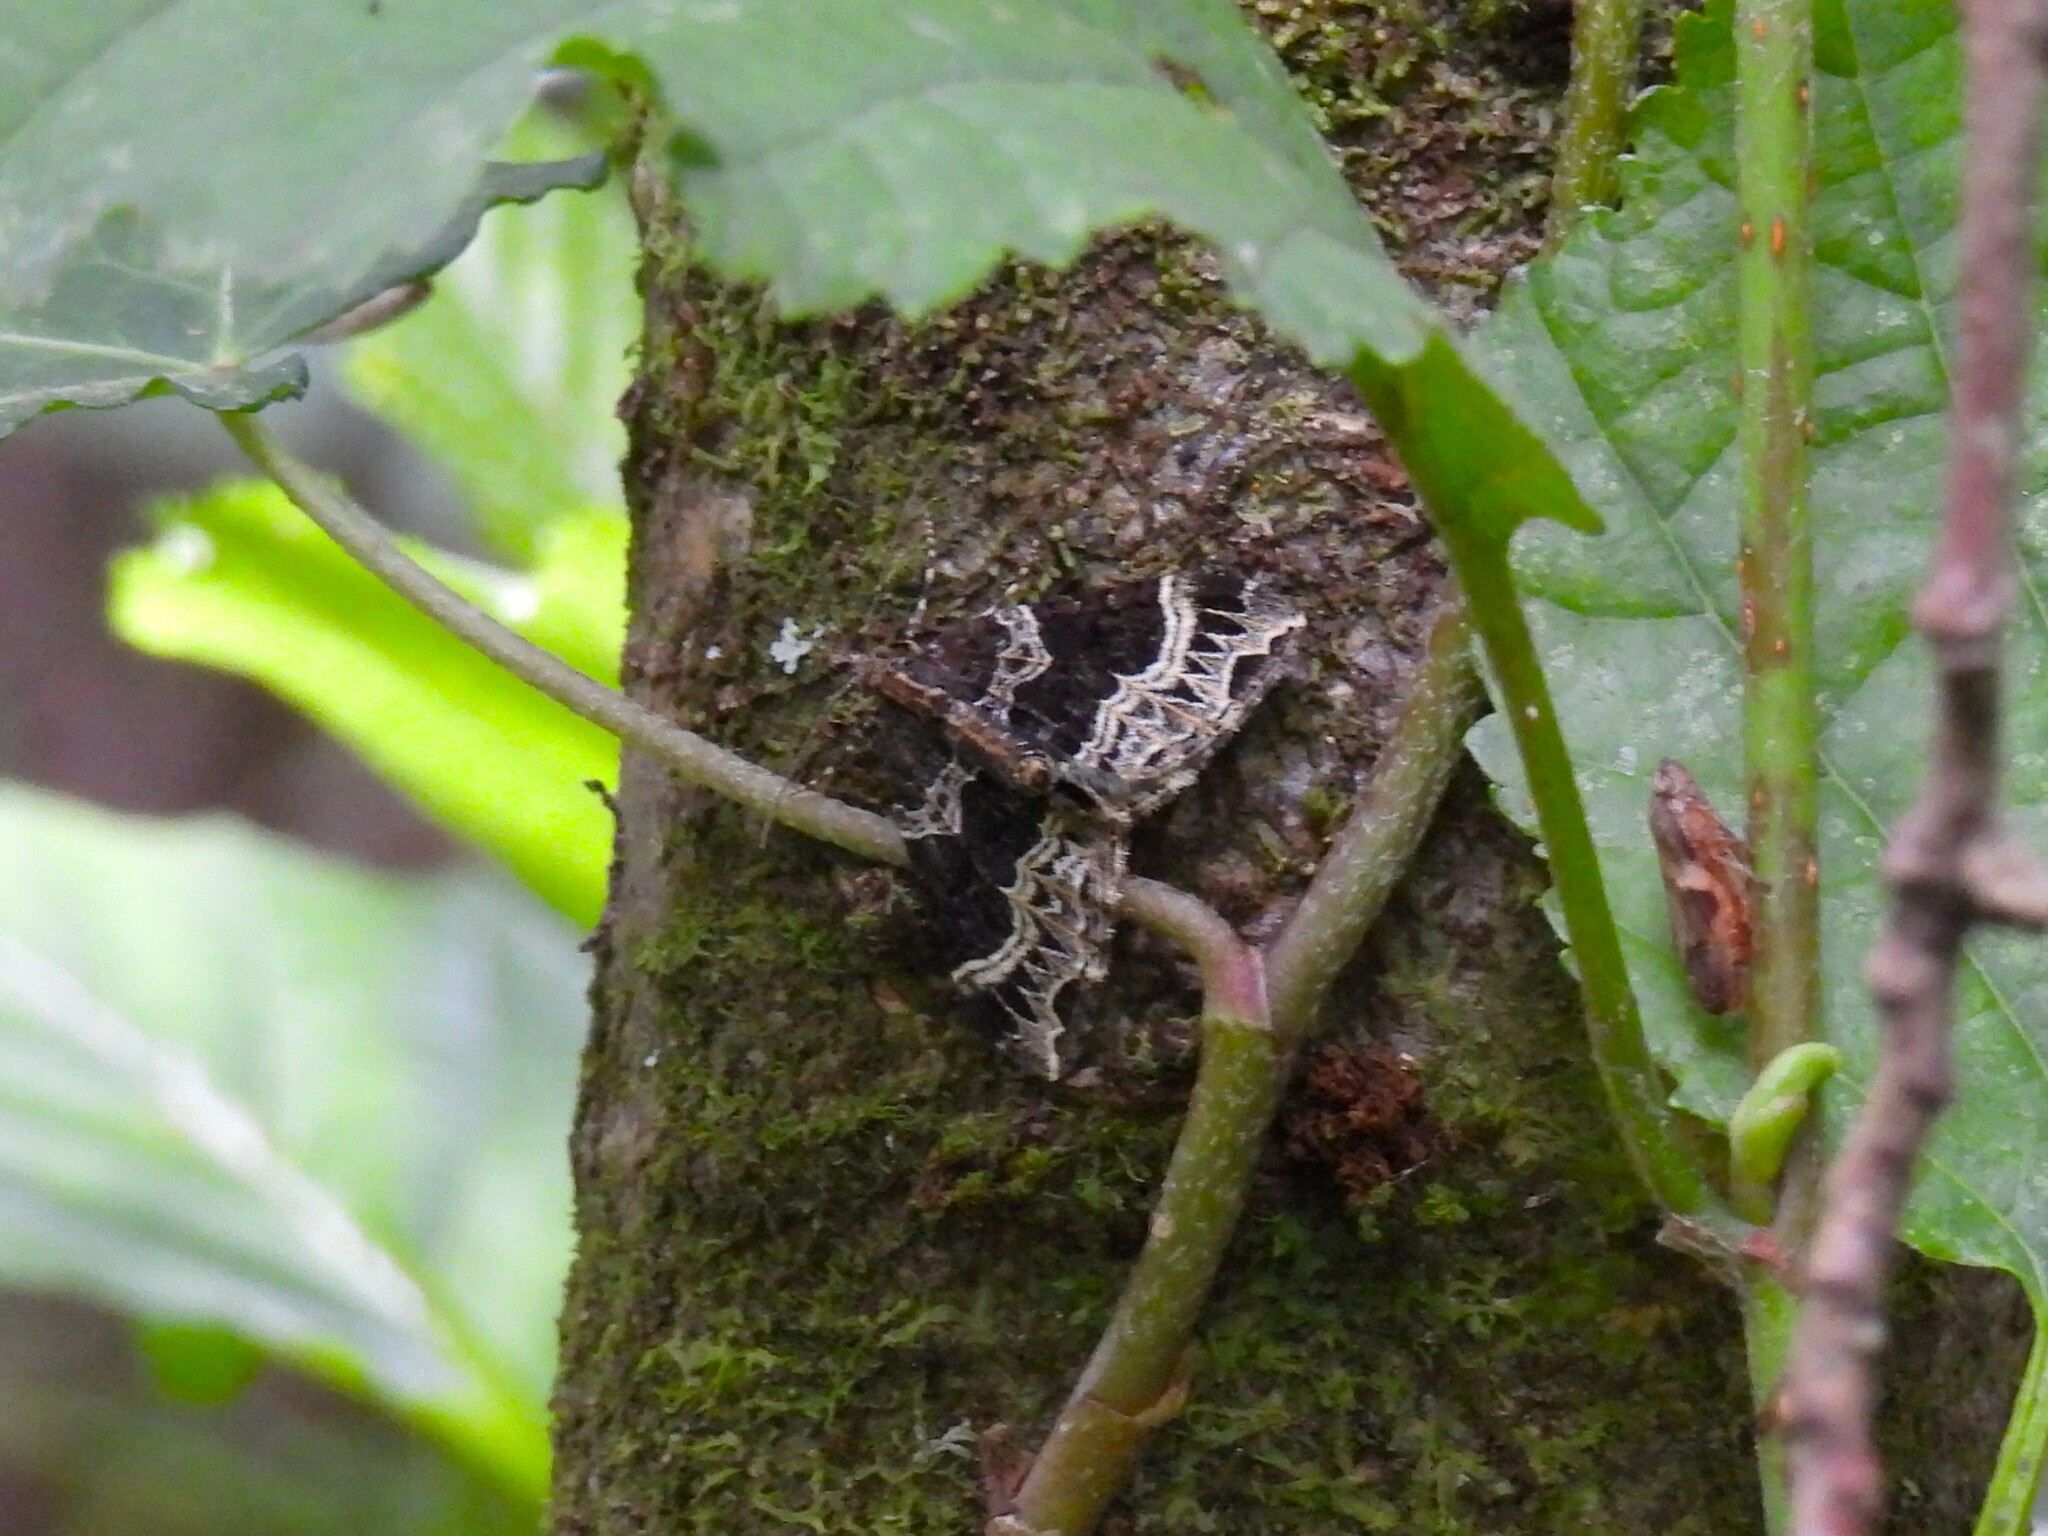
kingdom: Animalia
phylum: Arthropoda
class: Insecta
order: Lepidoptera
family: Geometridae
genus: Ecliptopera
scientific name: Ecliptopera silaceata
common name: Small phoenix
